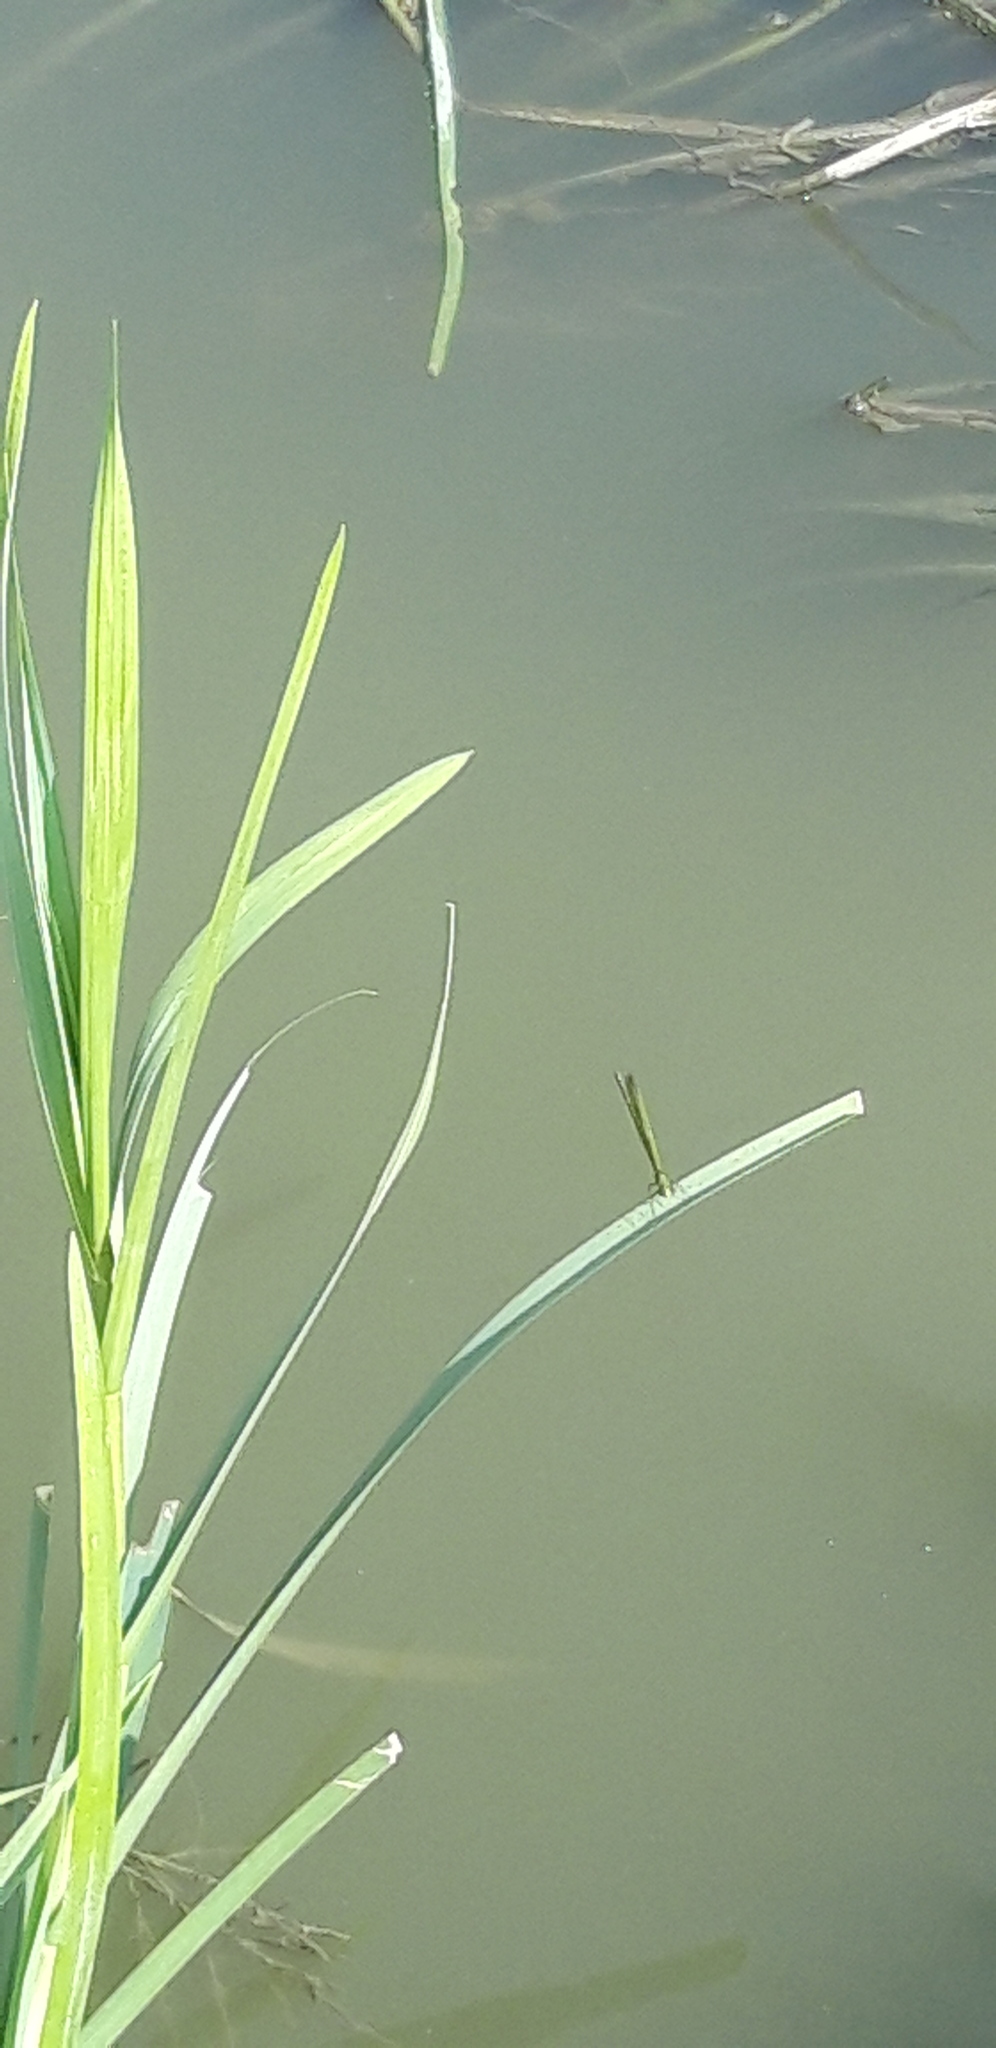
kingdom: Animalia
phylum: Arthropoda
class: Insecta
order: Odonata
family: Calopterygidae
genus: Calopteryx
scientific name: Calopteryx splendens
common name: Banded demoiselle
